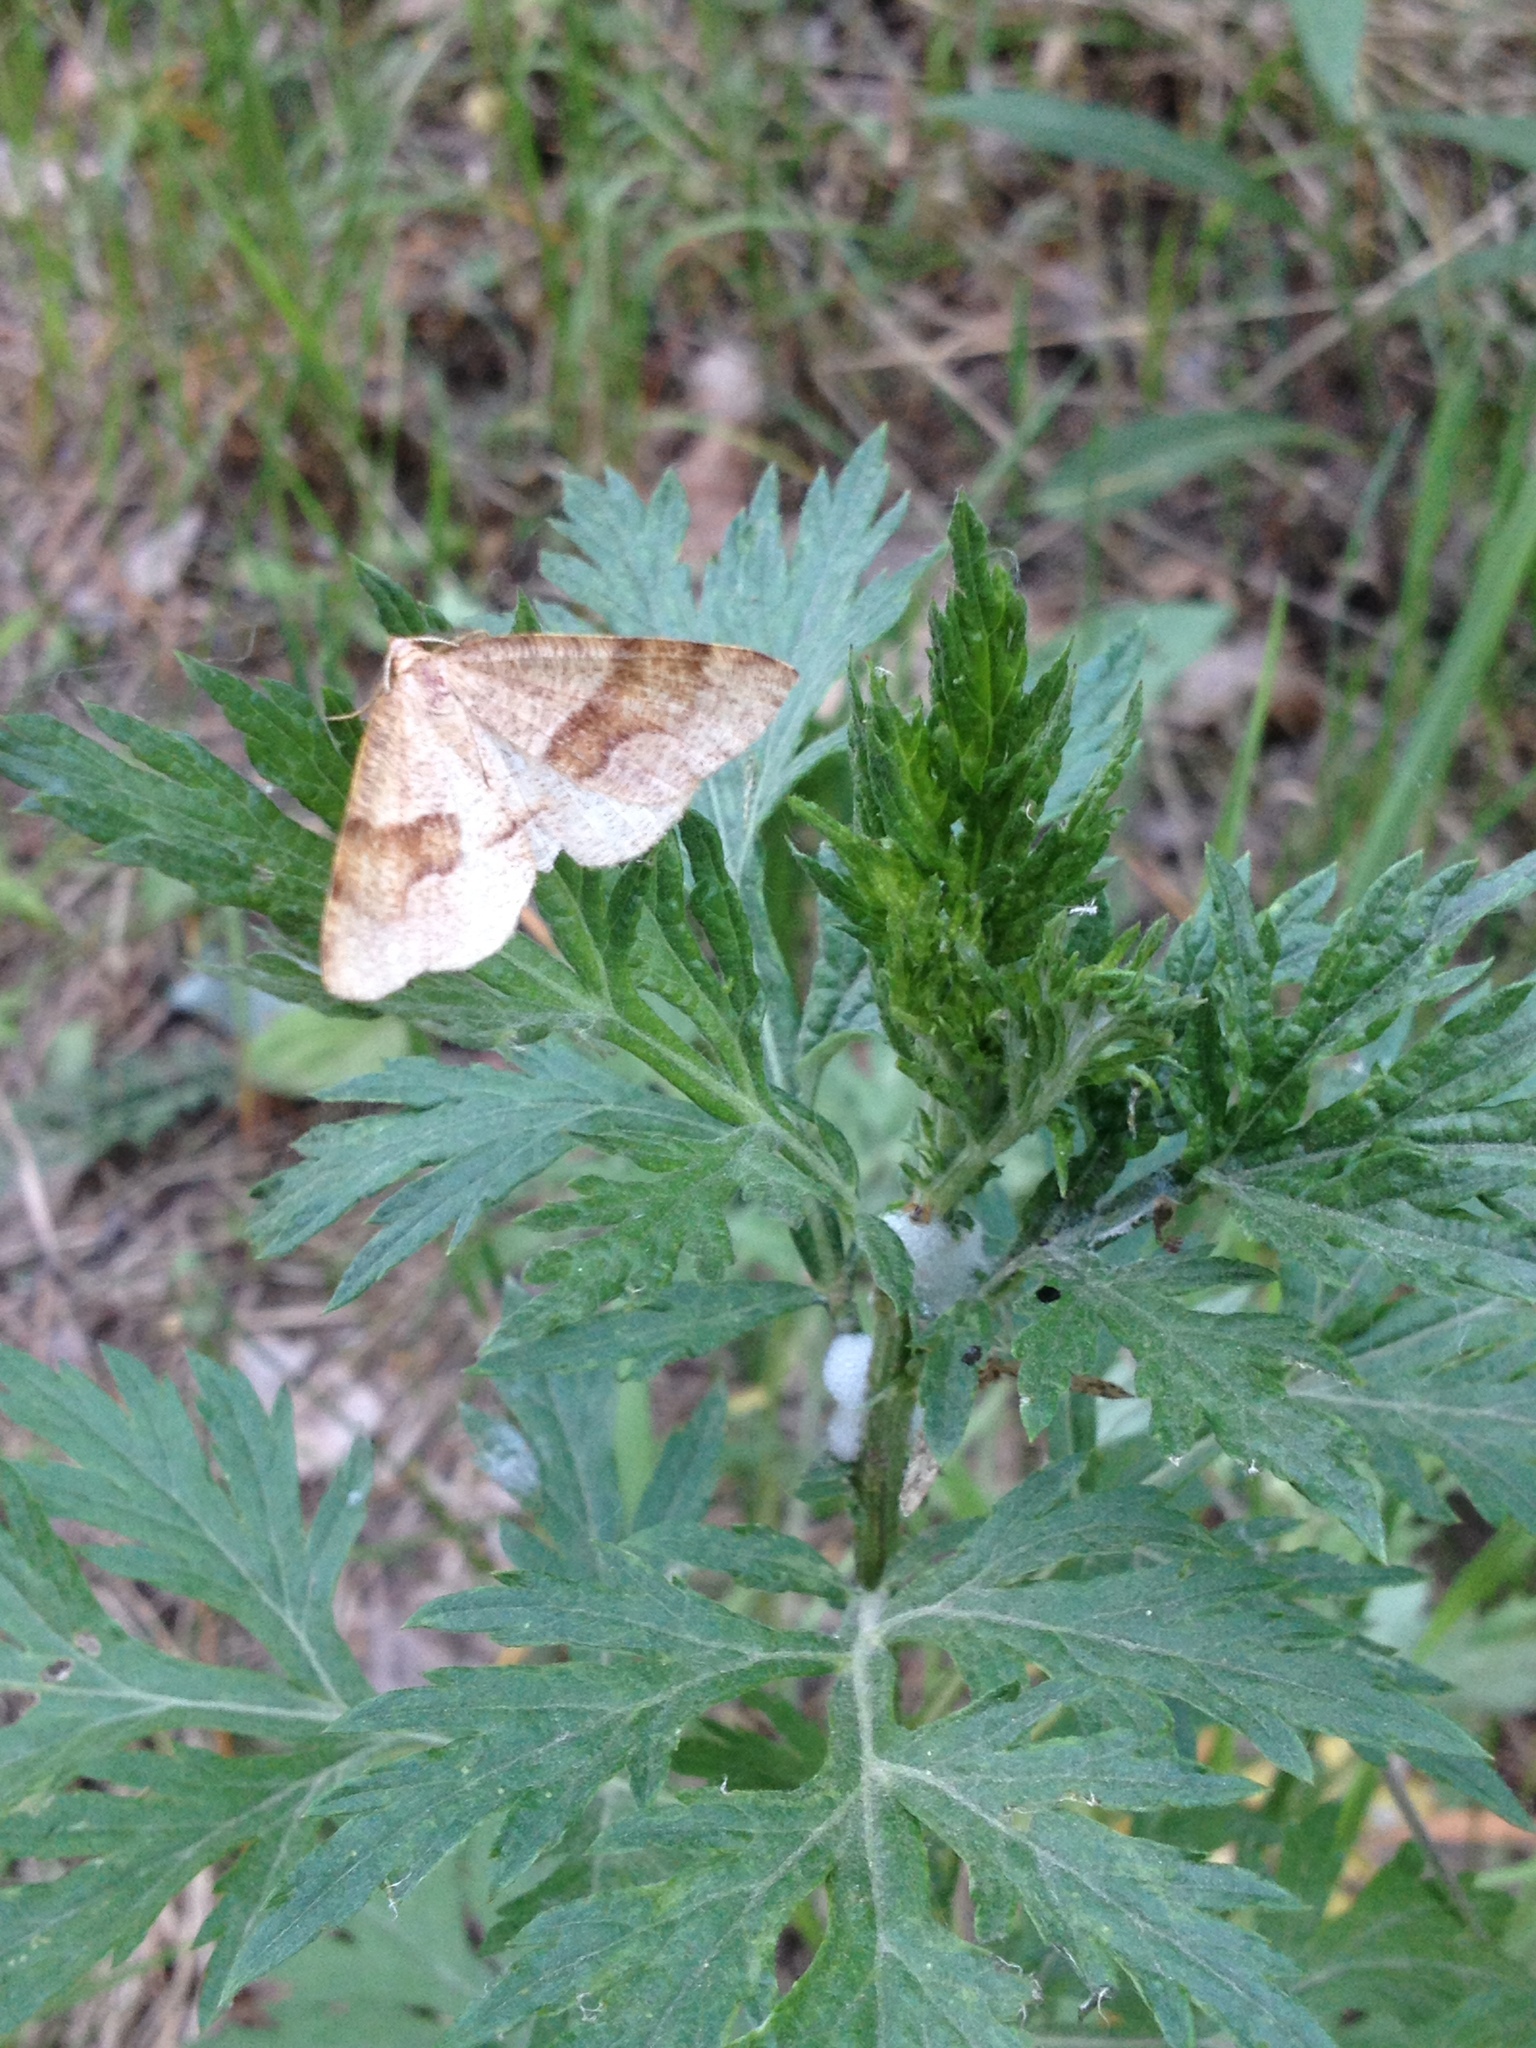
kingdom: Animalia
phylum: Arthropoda
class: Insecta
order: Lepidoptera
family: Geometridae
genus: Plagodis
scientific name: Plagodis pulveraria
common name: Barred umber
